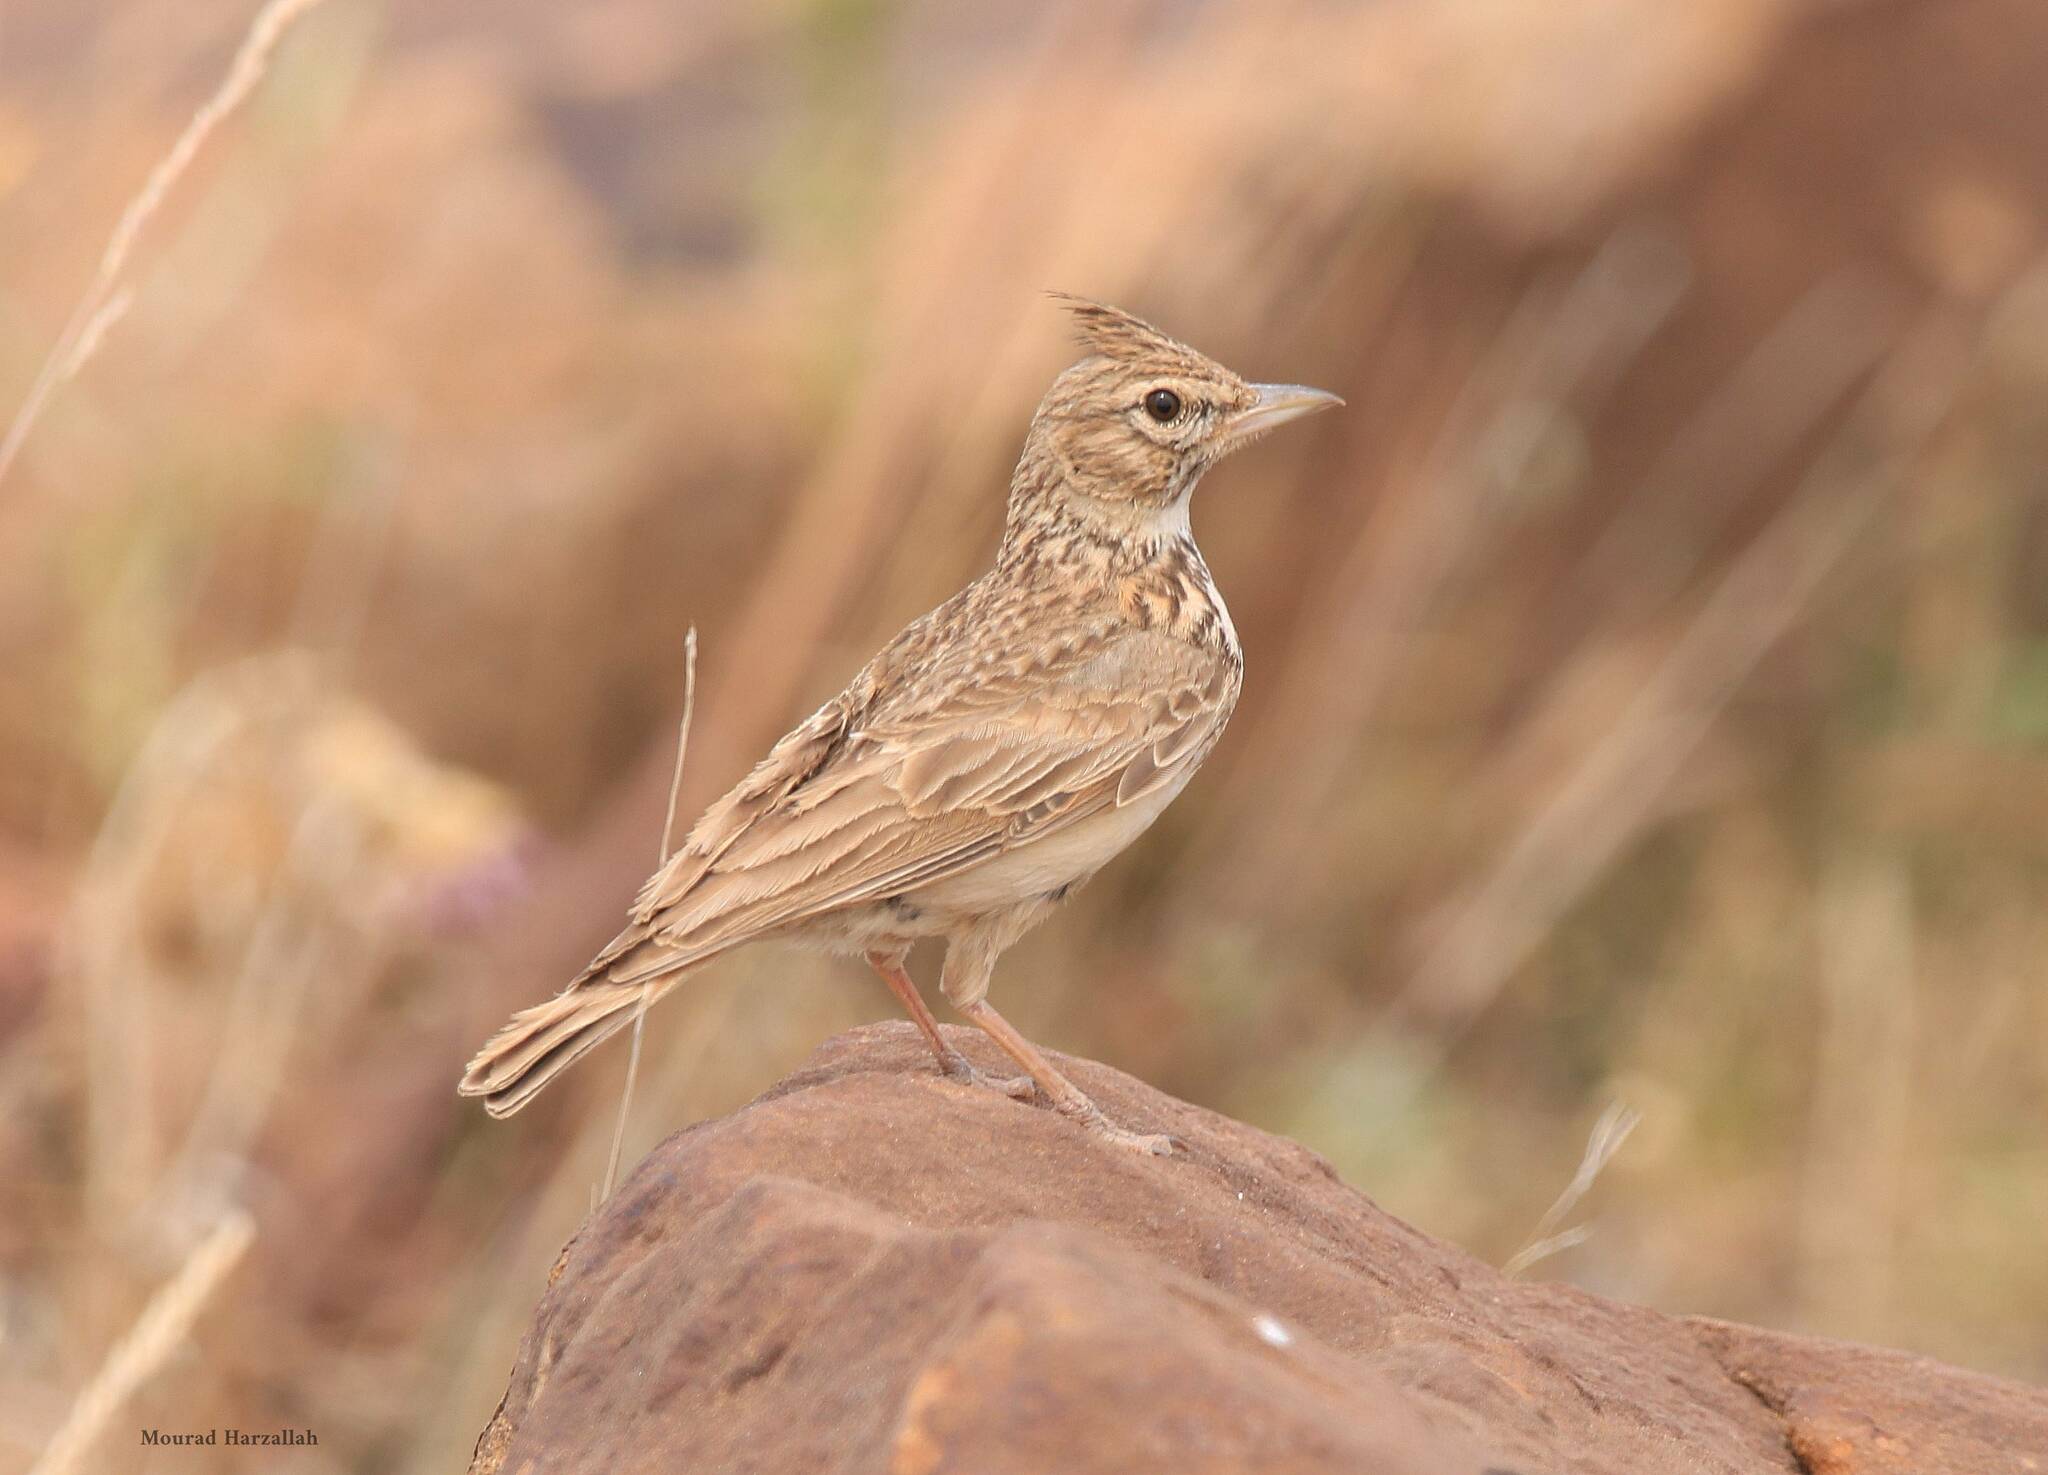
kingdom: Animalia
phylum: Chordata
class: Aves
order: Passeriformes
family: Alaudidae
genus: Galerida
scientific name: Galerida theklae
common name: Thekla lark
